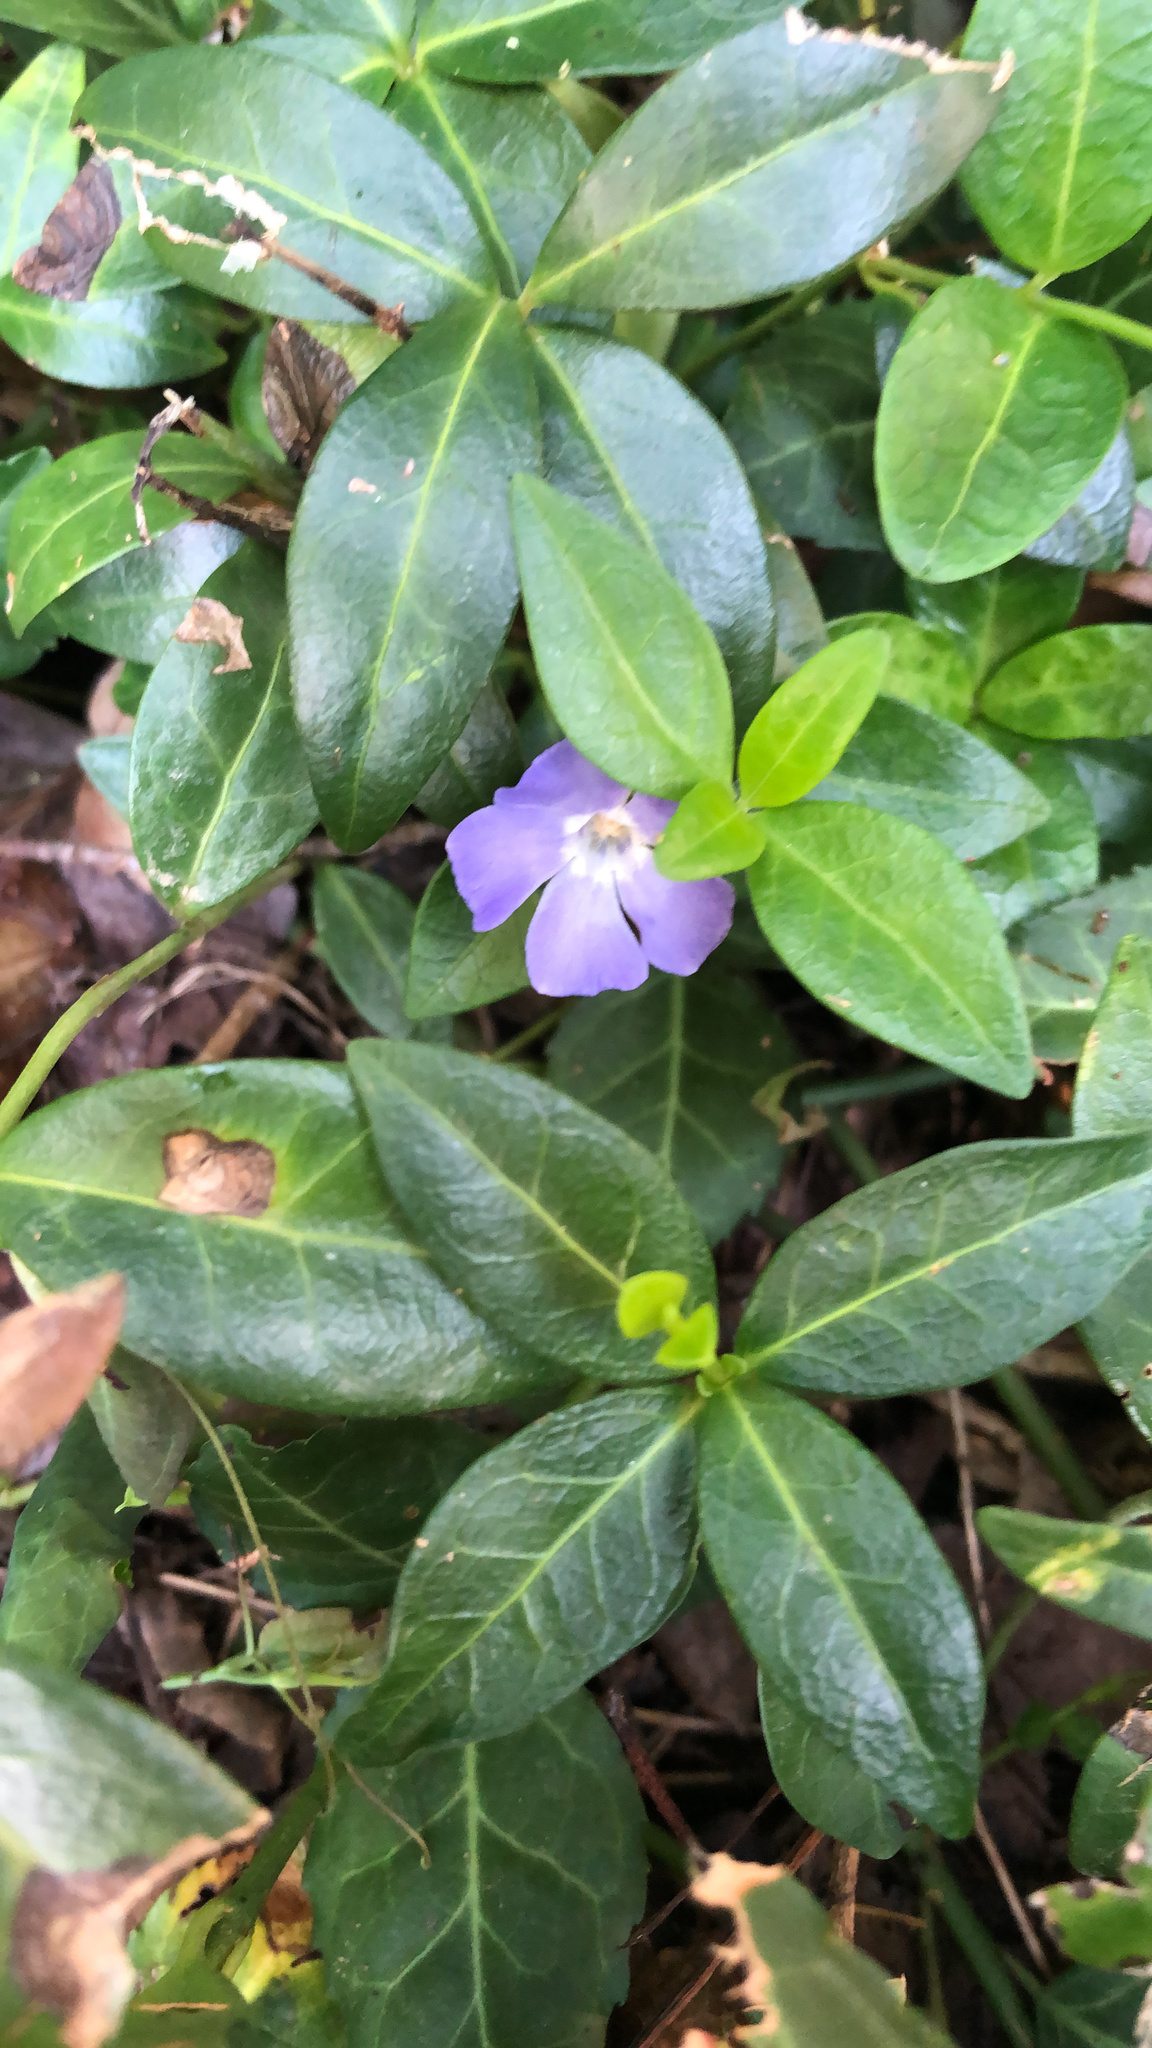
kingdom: Plantae
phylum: Tracheophyta
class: Magnoliopsida
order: Gentianales
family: Apocynaceae
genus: Vinca
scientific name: Vinca minor
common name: Lesser periwinkle
